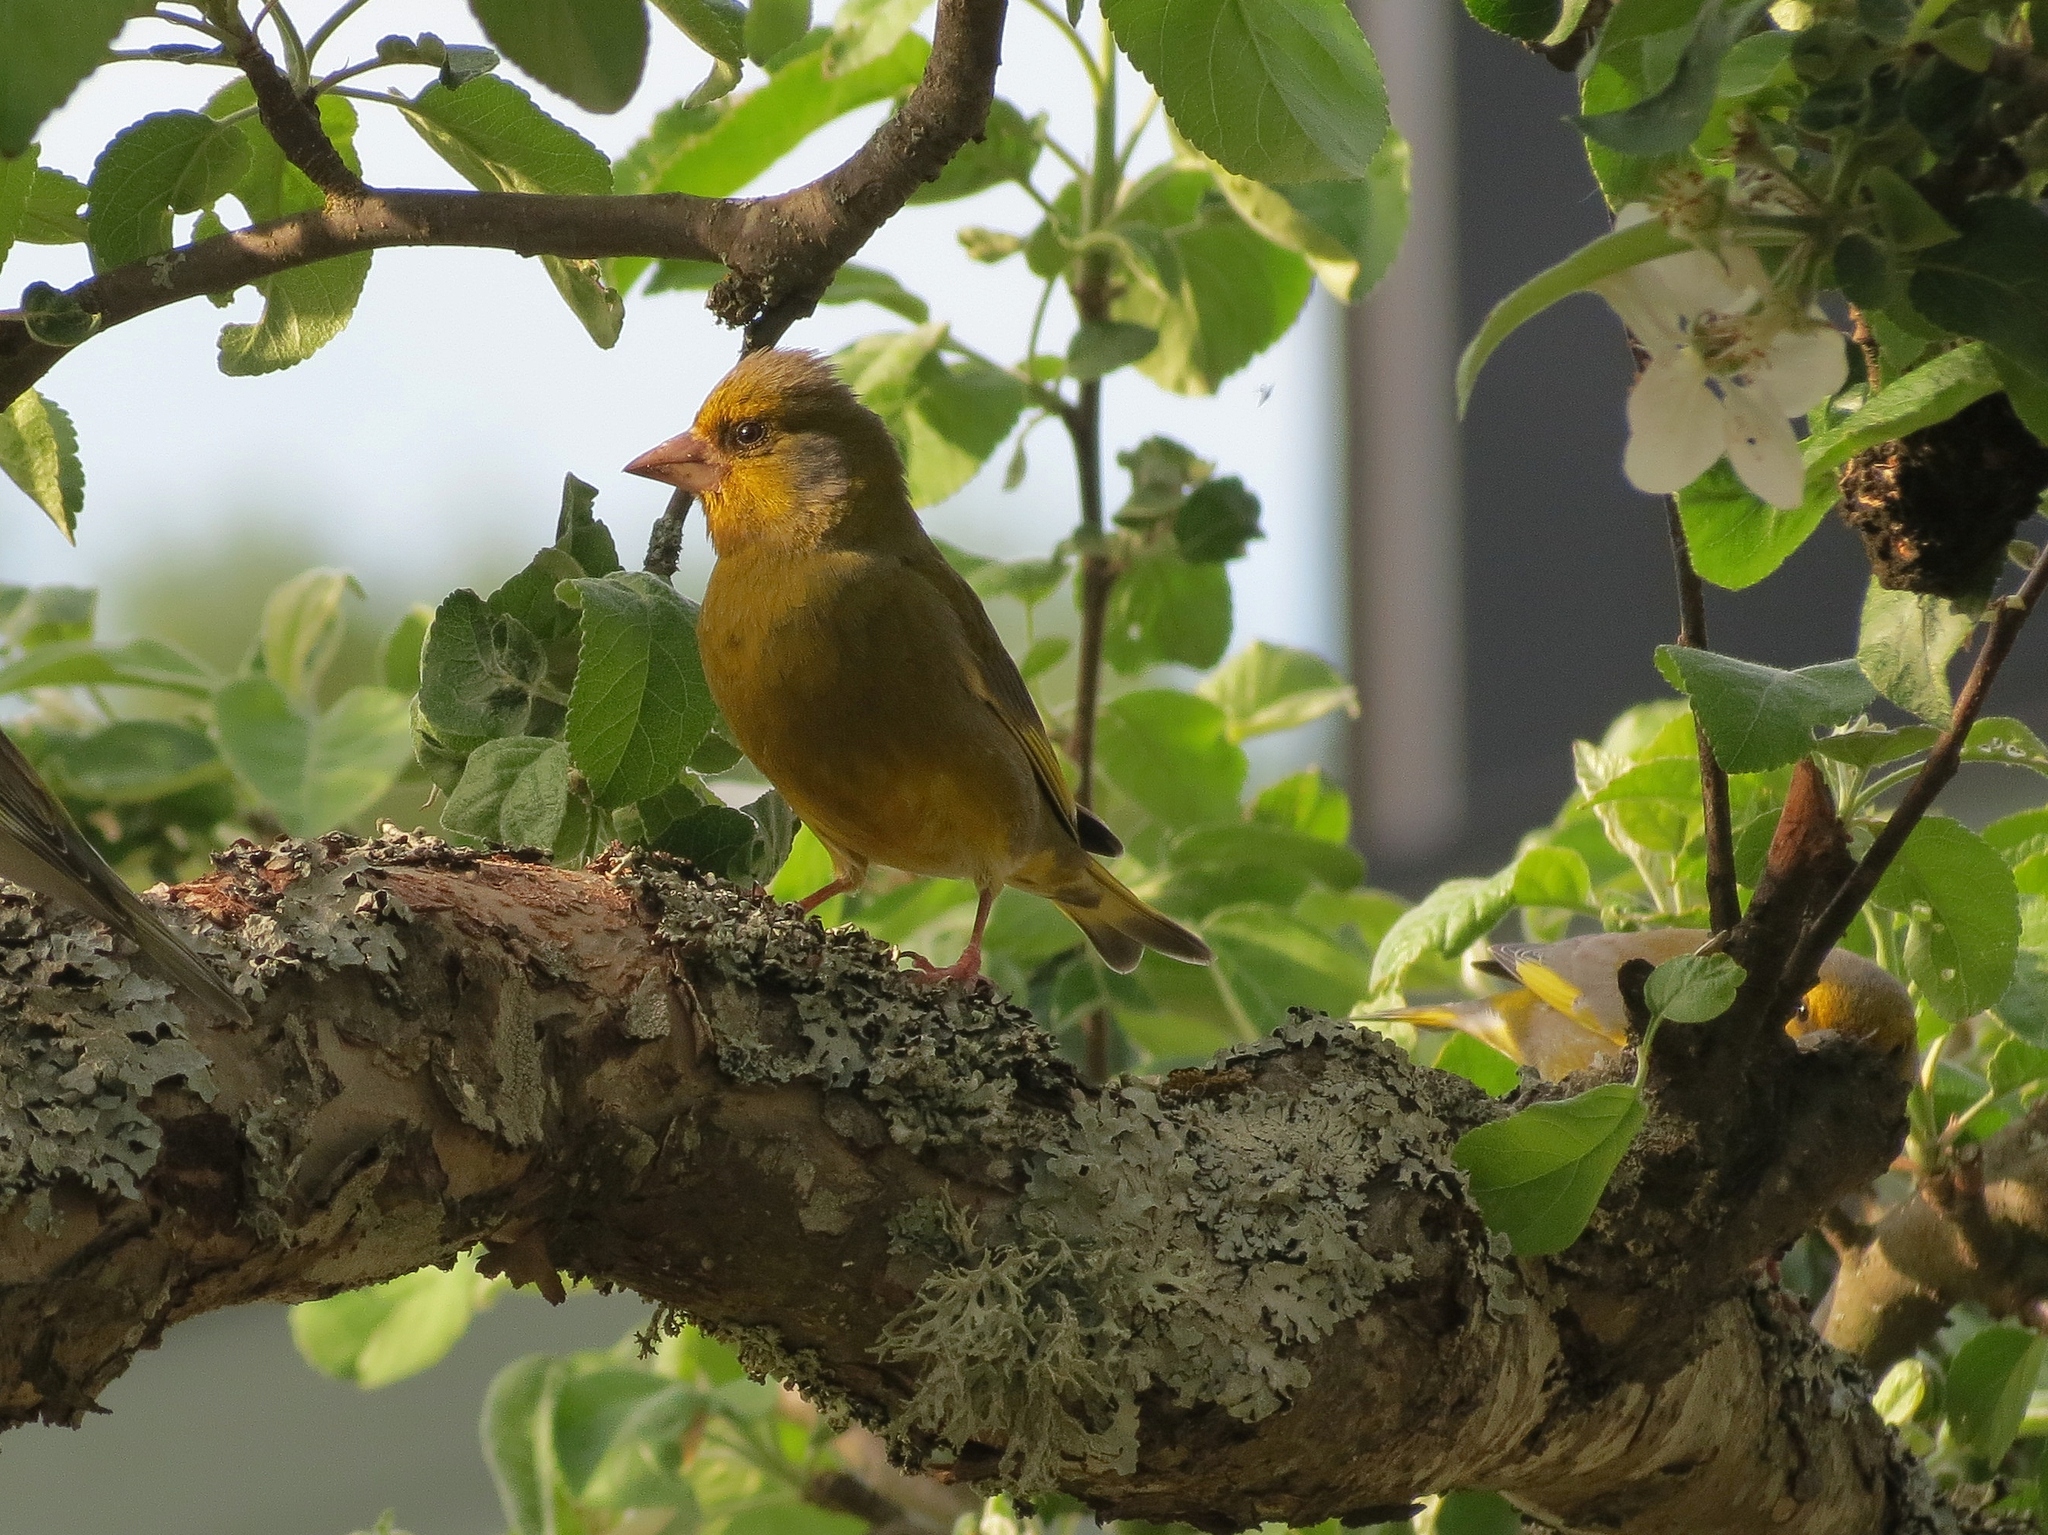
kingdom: Plantae
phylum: Tracheophyta
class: Liliopsida
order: Poales
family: Poaceae
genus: Chloris
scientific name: Chloris chloris
